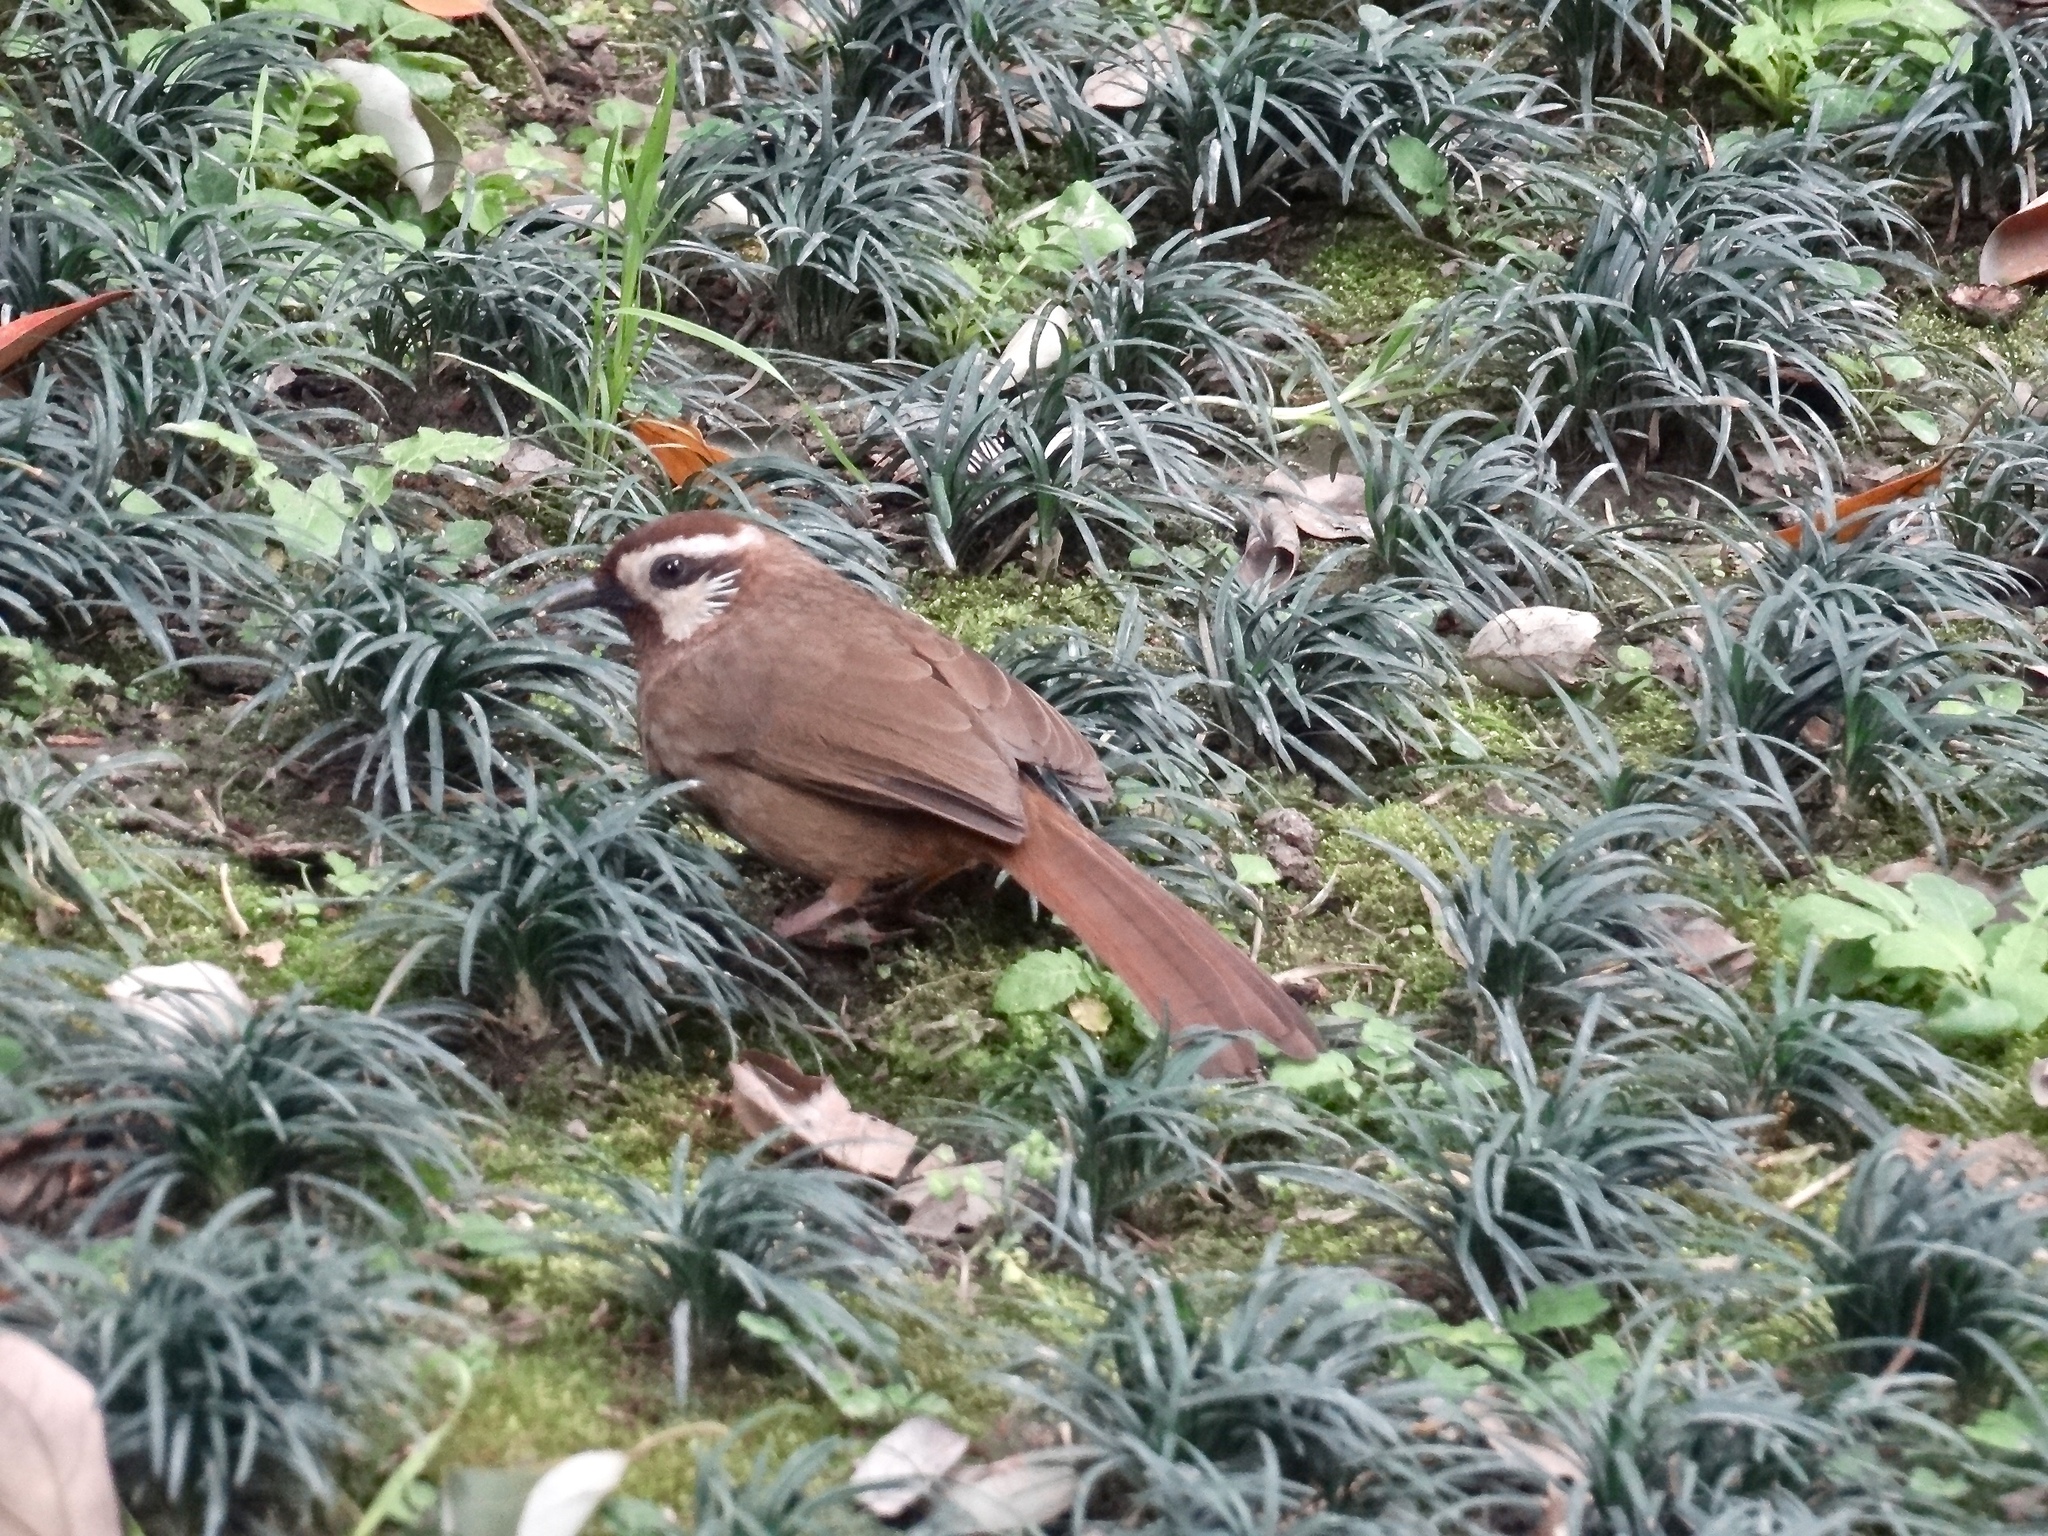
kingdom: Animalia
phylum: Chordata
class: Aves
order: Passeriformes
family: Leiothrichidae
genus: Pterorhinus
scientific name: Pterorhinus sannio
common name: White-browed laughingthrush
